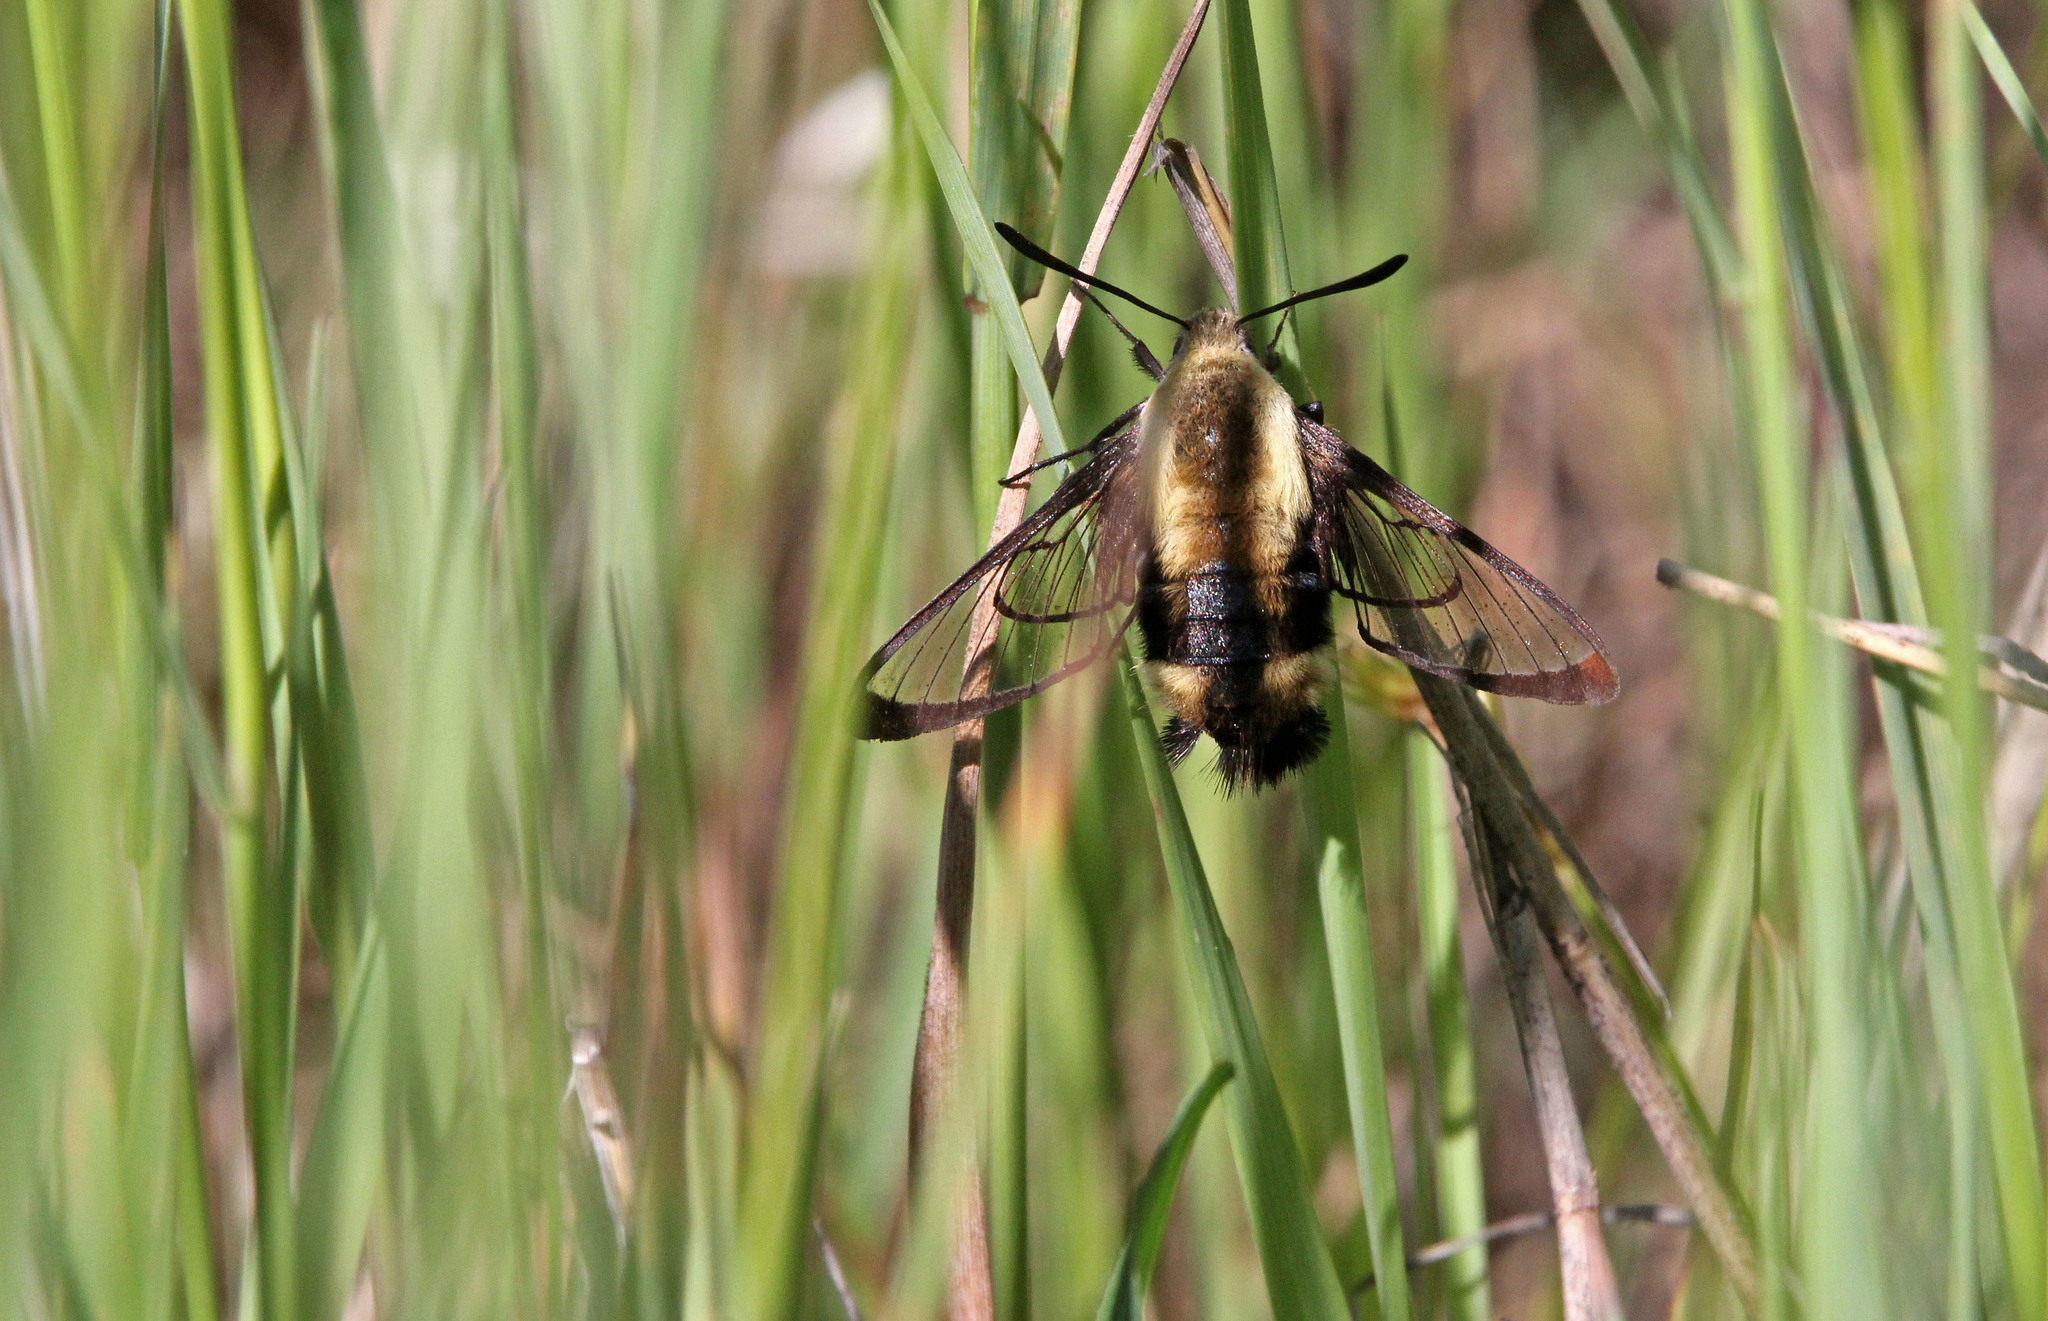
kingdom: Animalia
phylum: Arthropoda
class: Insecta
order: Lepidoptera
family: Sphingidae
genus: Hemaris
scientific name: Hemaris diffinis
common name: Bumblebee moth
